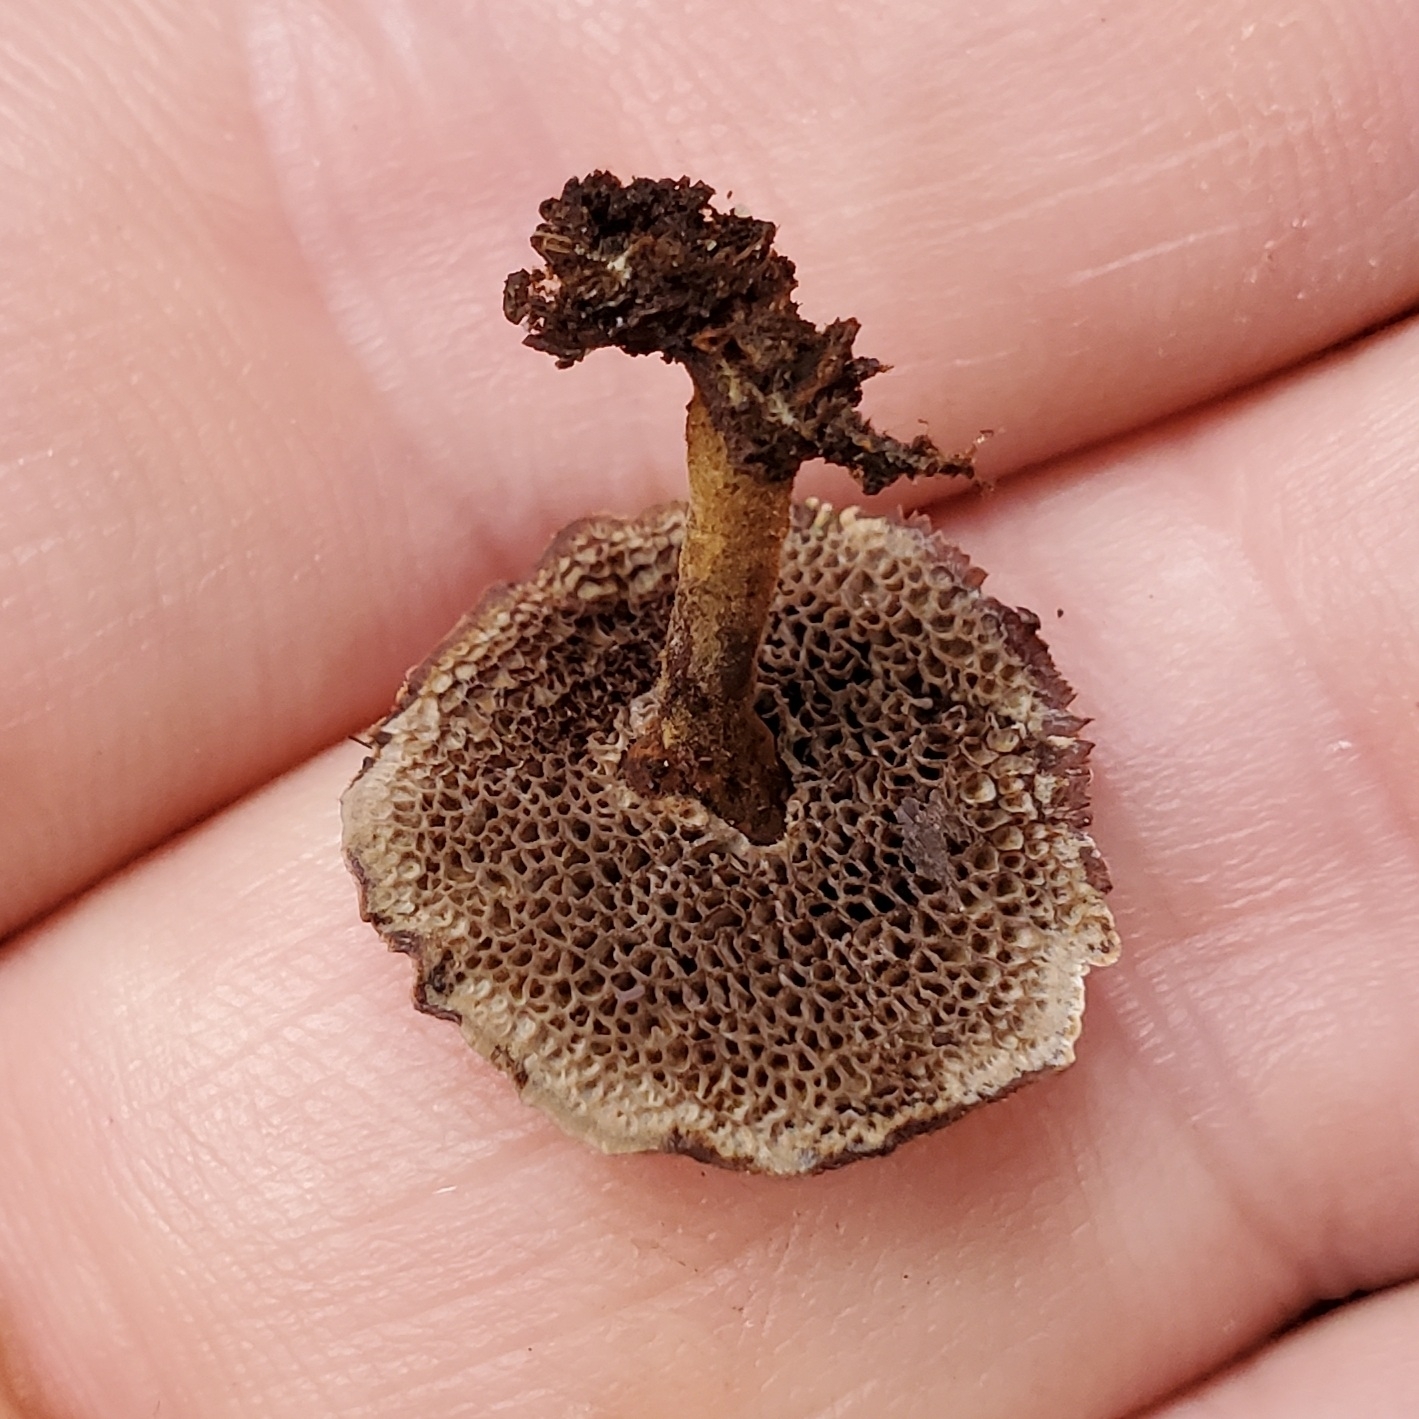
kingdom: Fungi
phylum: Basidiomycota
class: Agaricomycetes
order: Hymenochaetales
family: Hymenochaetaceae
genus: Coltricia
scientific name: Coltricia cinnamomea
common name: Shiny cinnamon polypore
